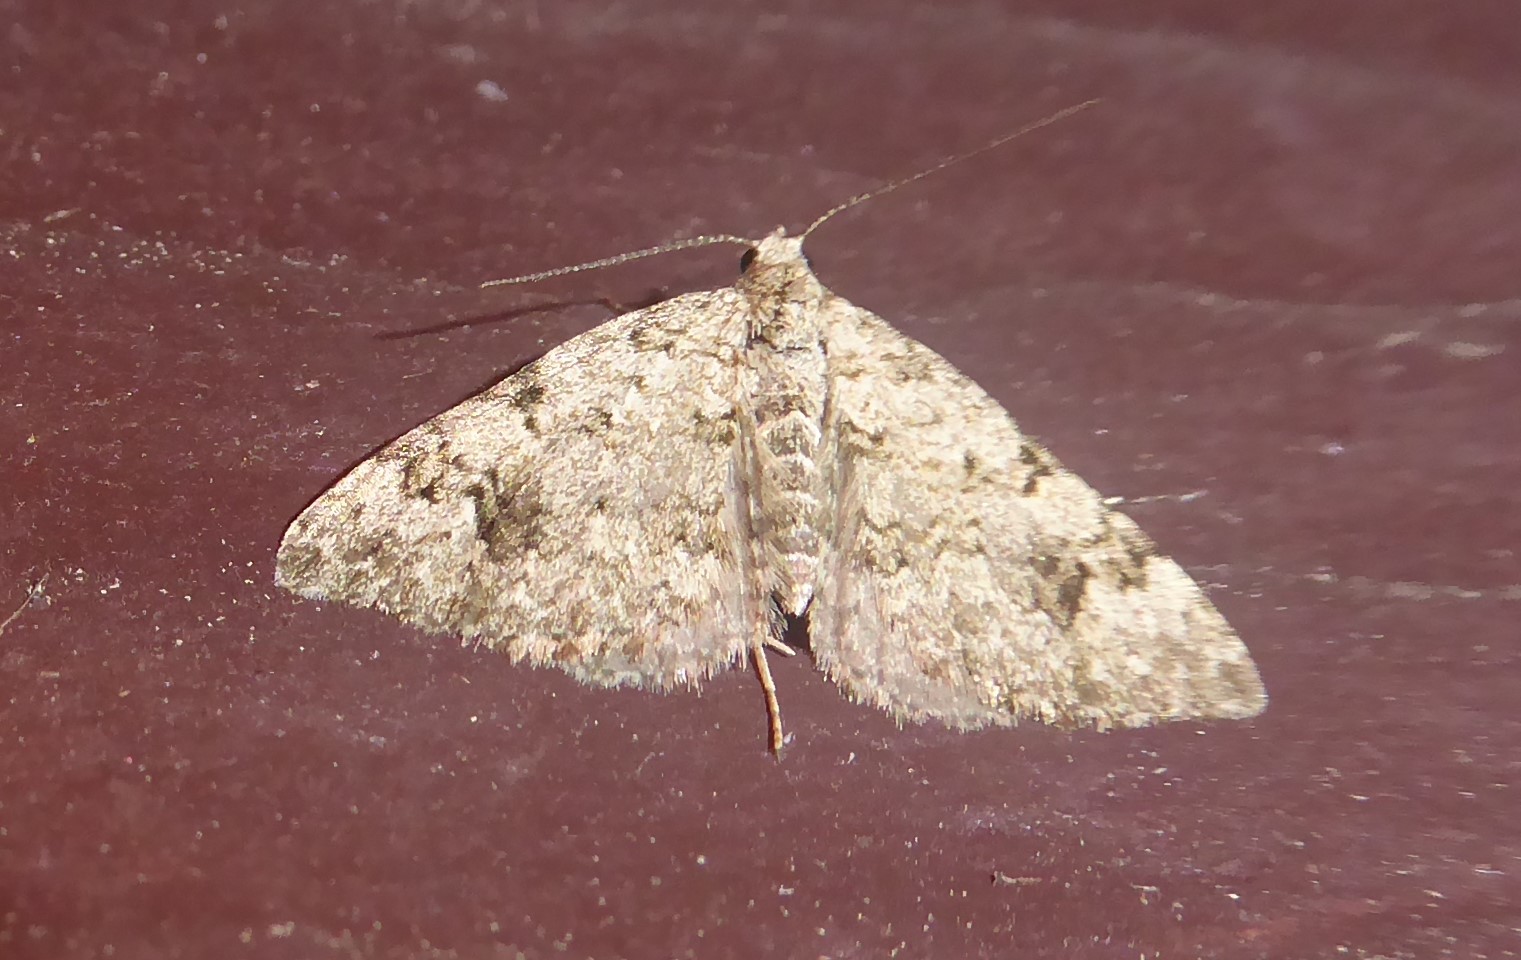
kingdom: Animalia
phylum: Arthropoda
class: Insecta
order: Lepidoptera
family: Geometridae
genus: Helastia
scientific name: Helastia cinerearia
